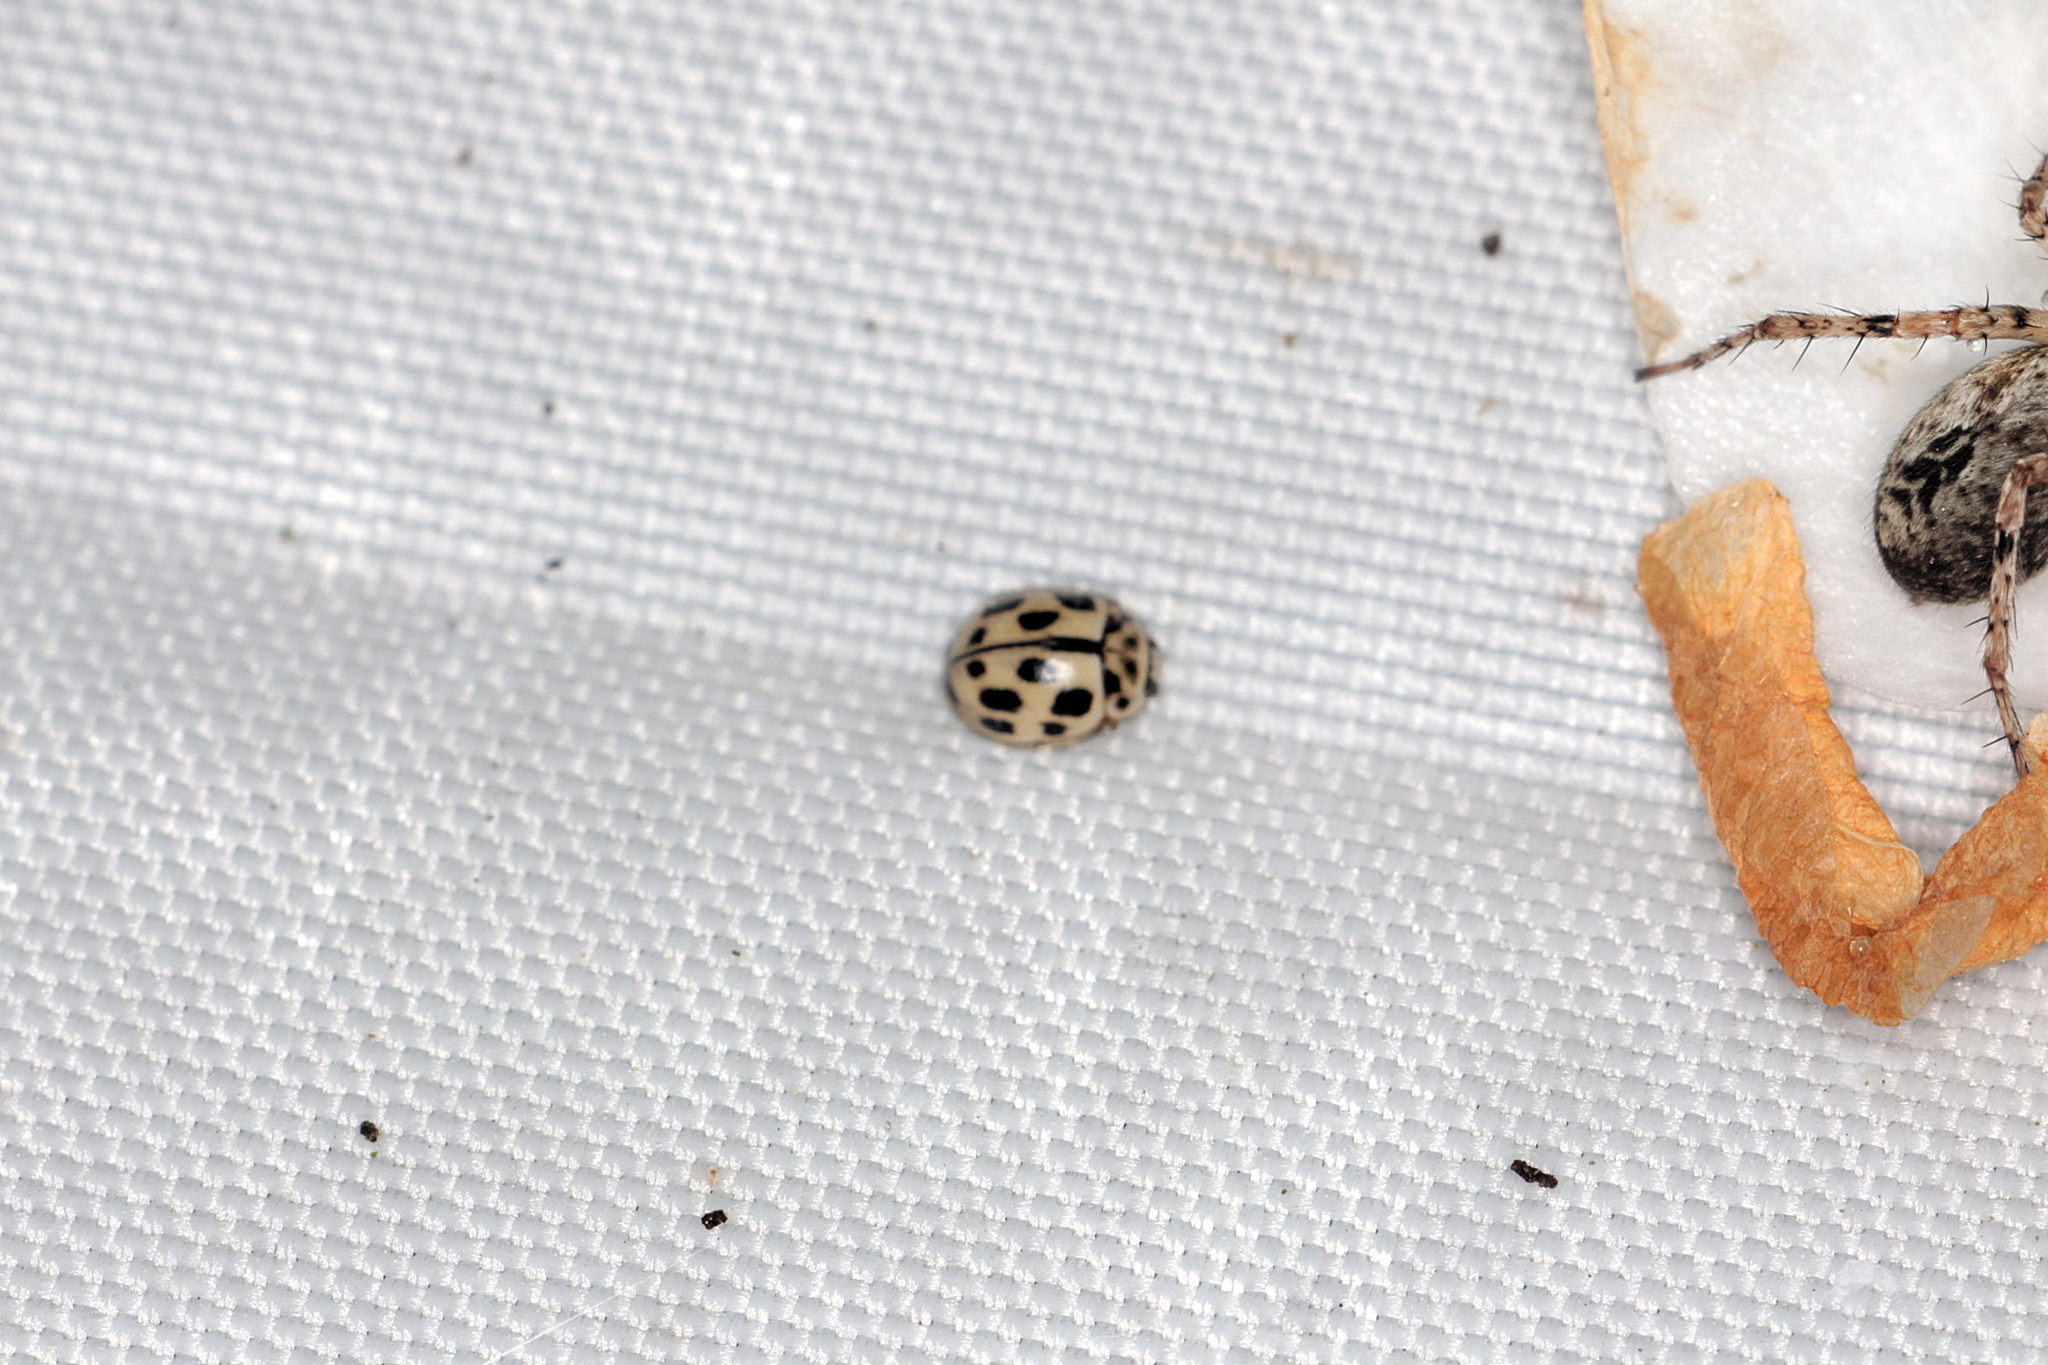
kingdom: Animalia
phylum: Arthropoda
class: Insecta
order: Coleoptera
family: Coccinellidae
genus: Propylaea
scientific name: Propylaea quatuordecimpunctata
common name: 14-spotted ladybird beetle
